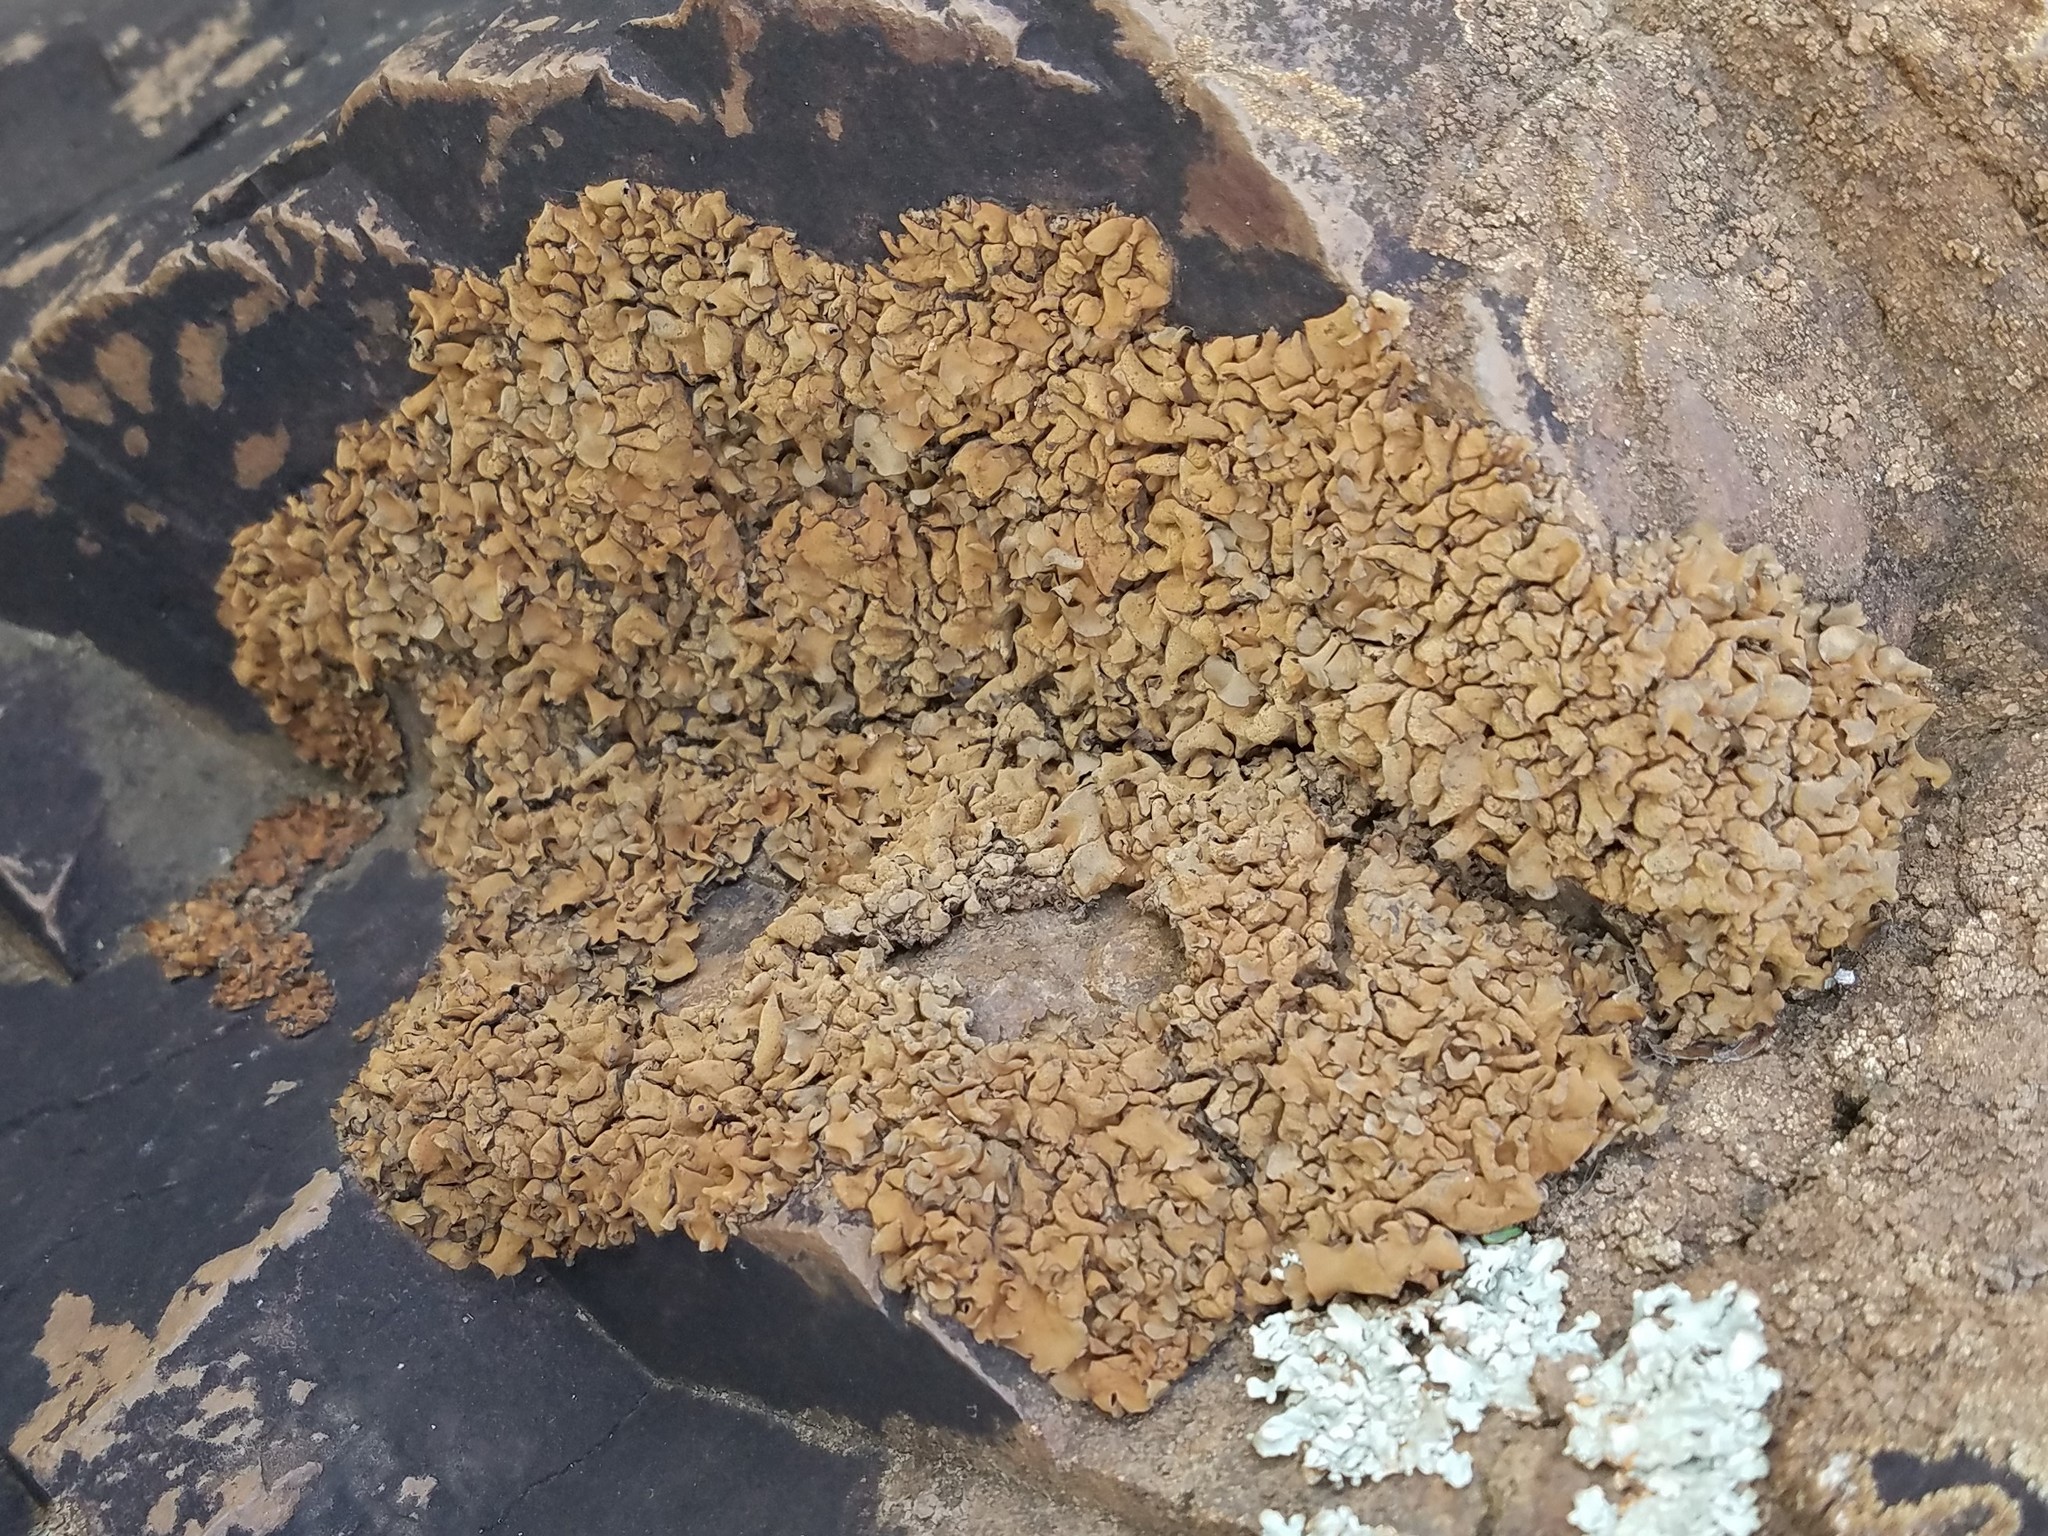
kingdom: Fungi
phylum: Ascomycota
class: Eurotiomycetes
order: Verrucariales
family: Verrucariaceae
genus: Dermatocarpon
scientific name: Dermatocarpon luridum
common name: Brook stippleback lichen
